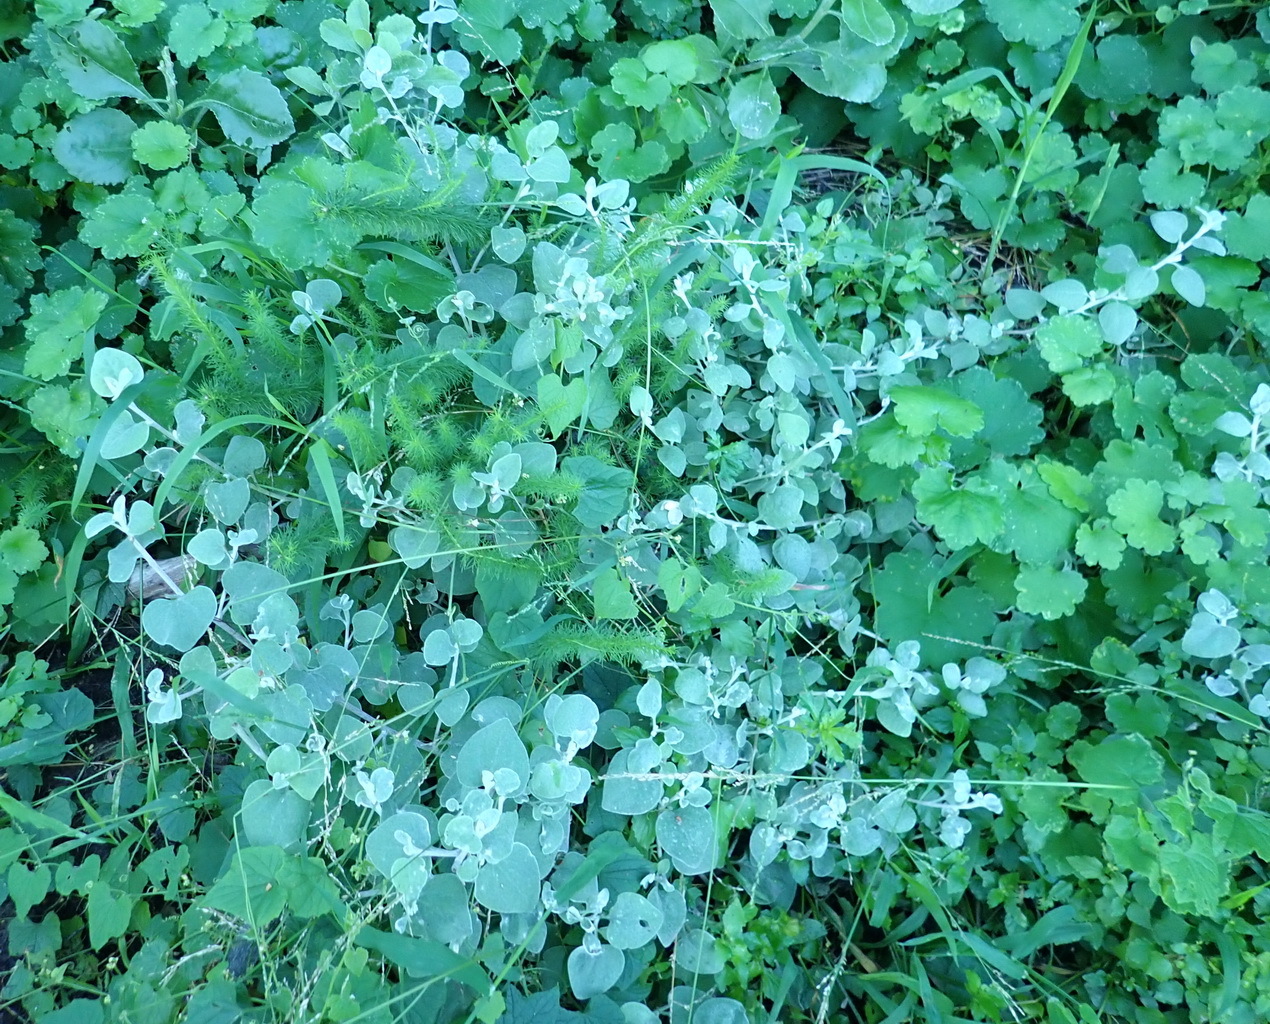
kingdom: Plantae
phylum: Tracheophyta
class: Magnoliopsida
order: Asterales
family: Asteraceae
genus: Helichrysum
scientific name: Helichrysum petiolare
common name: Licorice-plant
